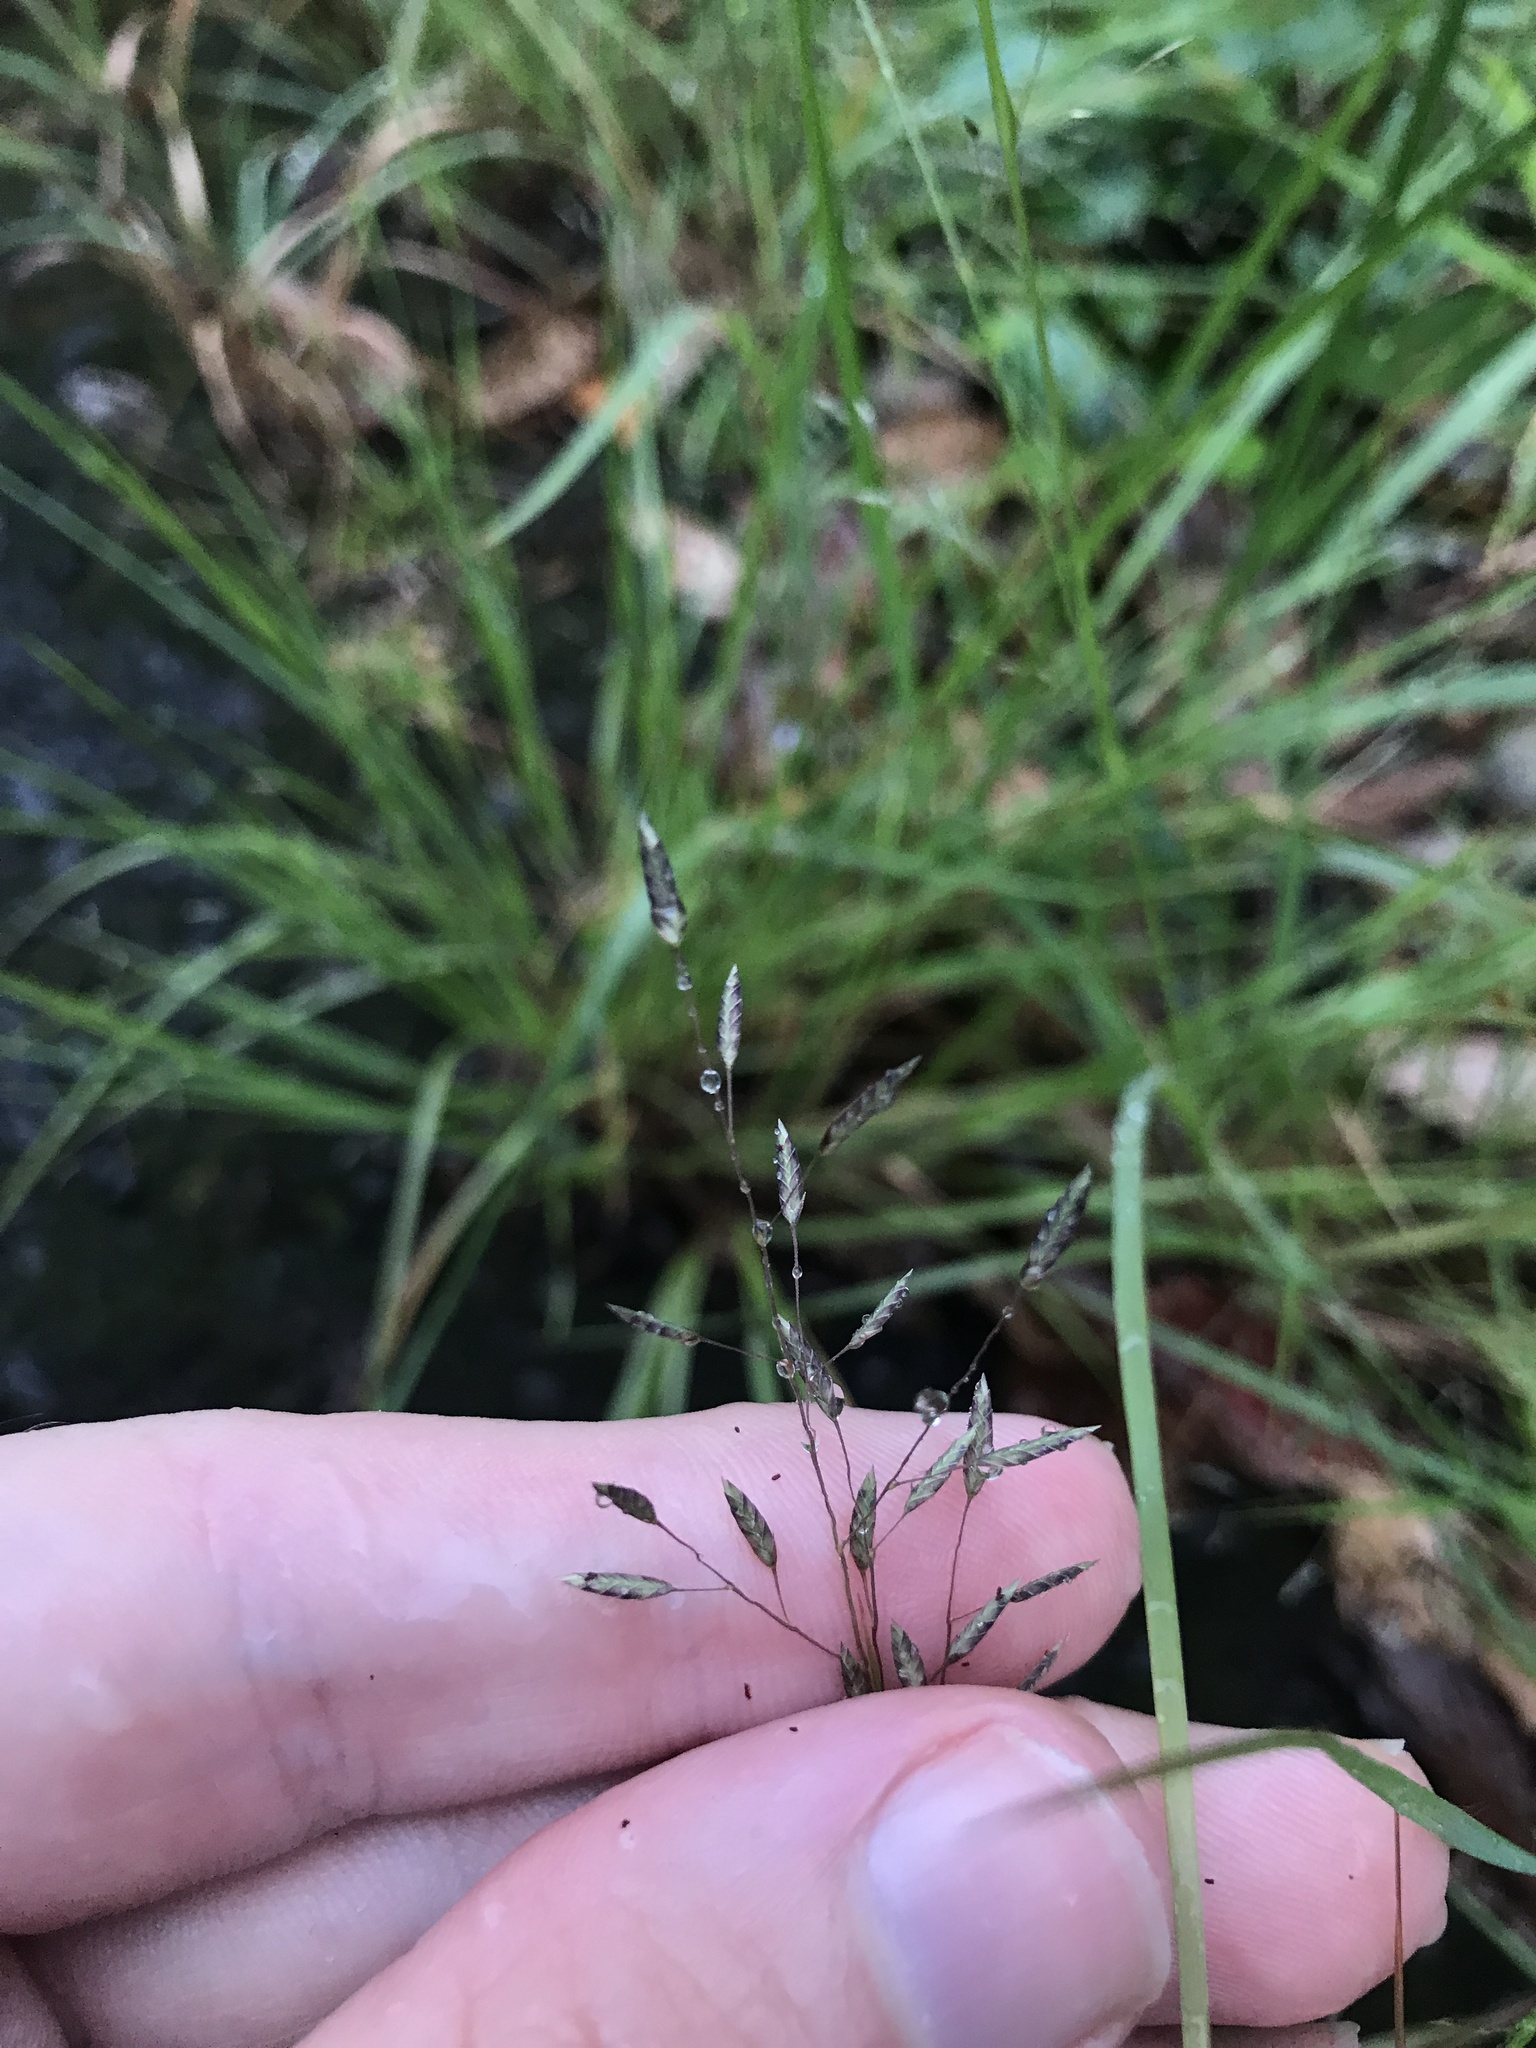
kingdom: Plantae
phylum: Tracheophyta
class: Liliopsida
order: Poales
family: Poaceae
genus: Eragrostis
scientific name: Eragrostis ferruginea
